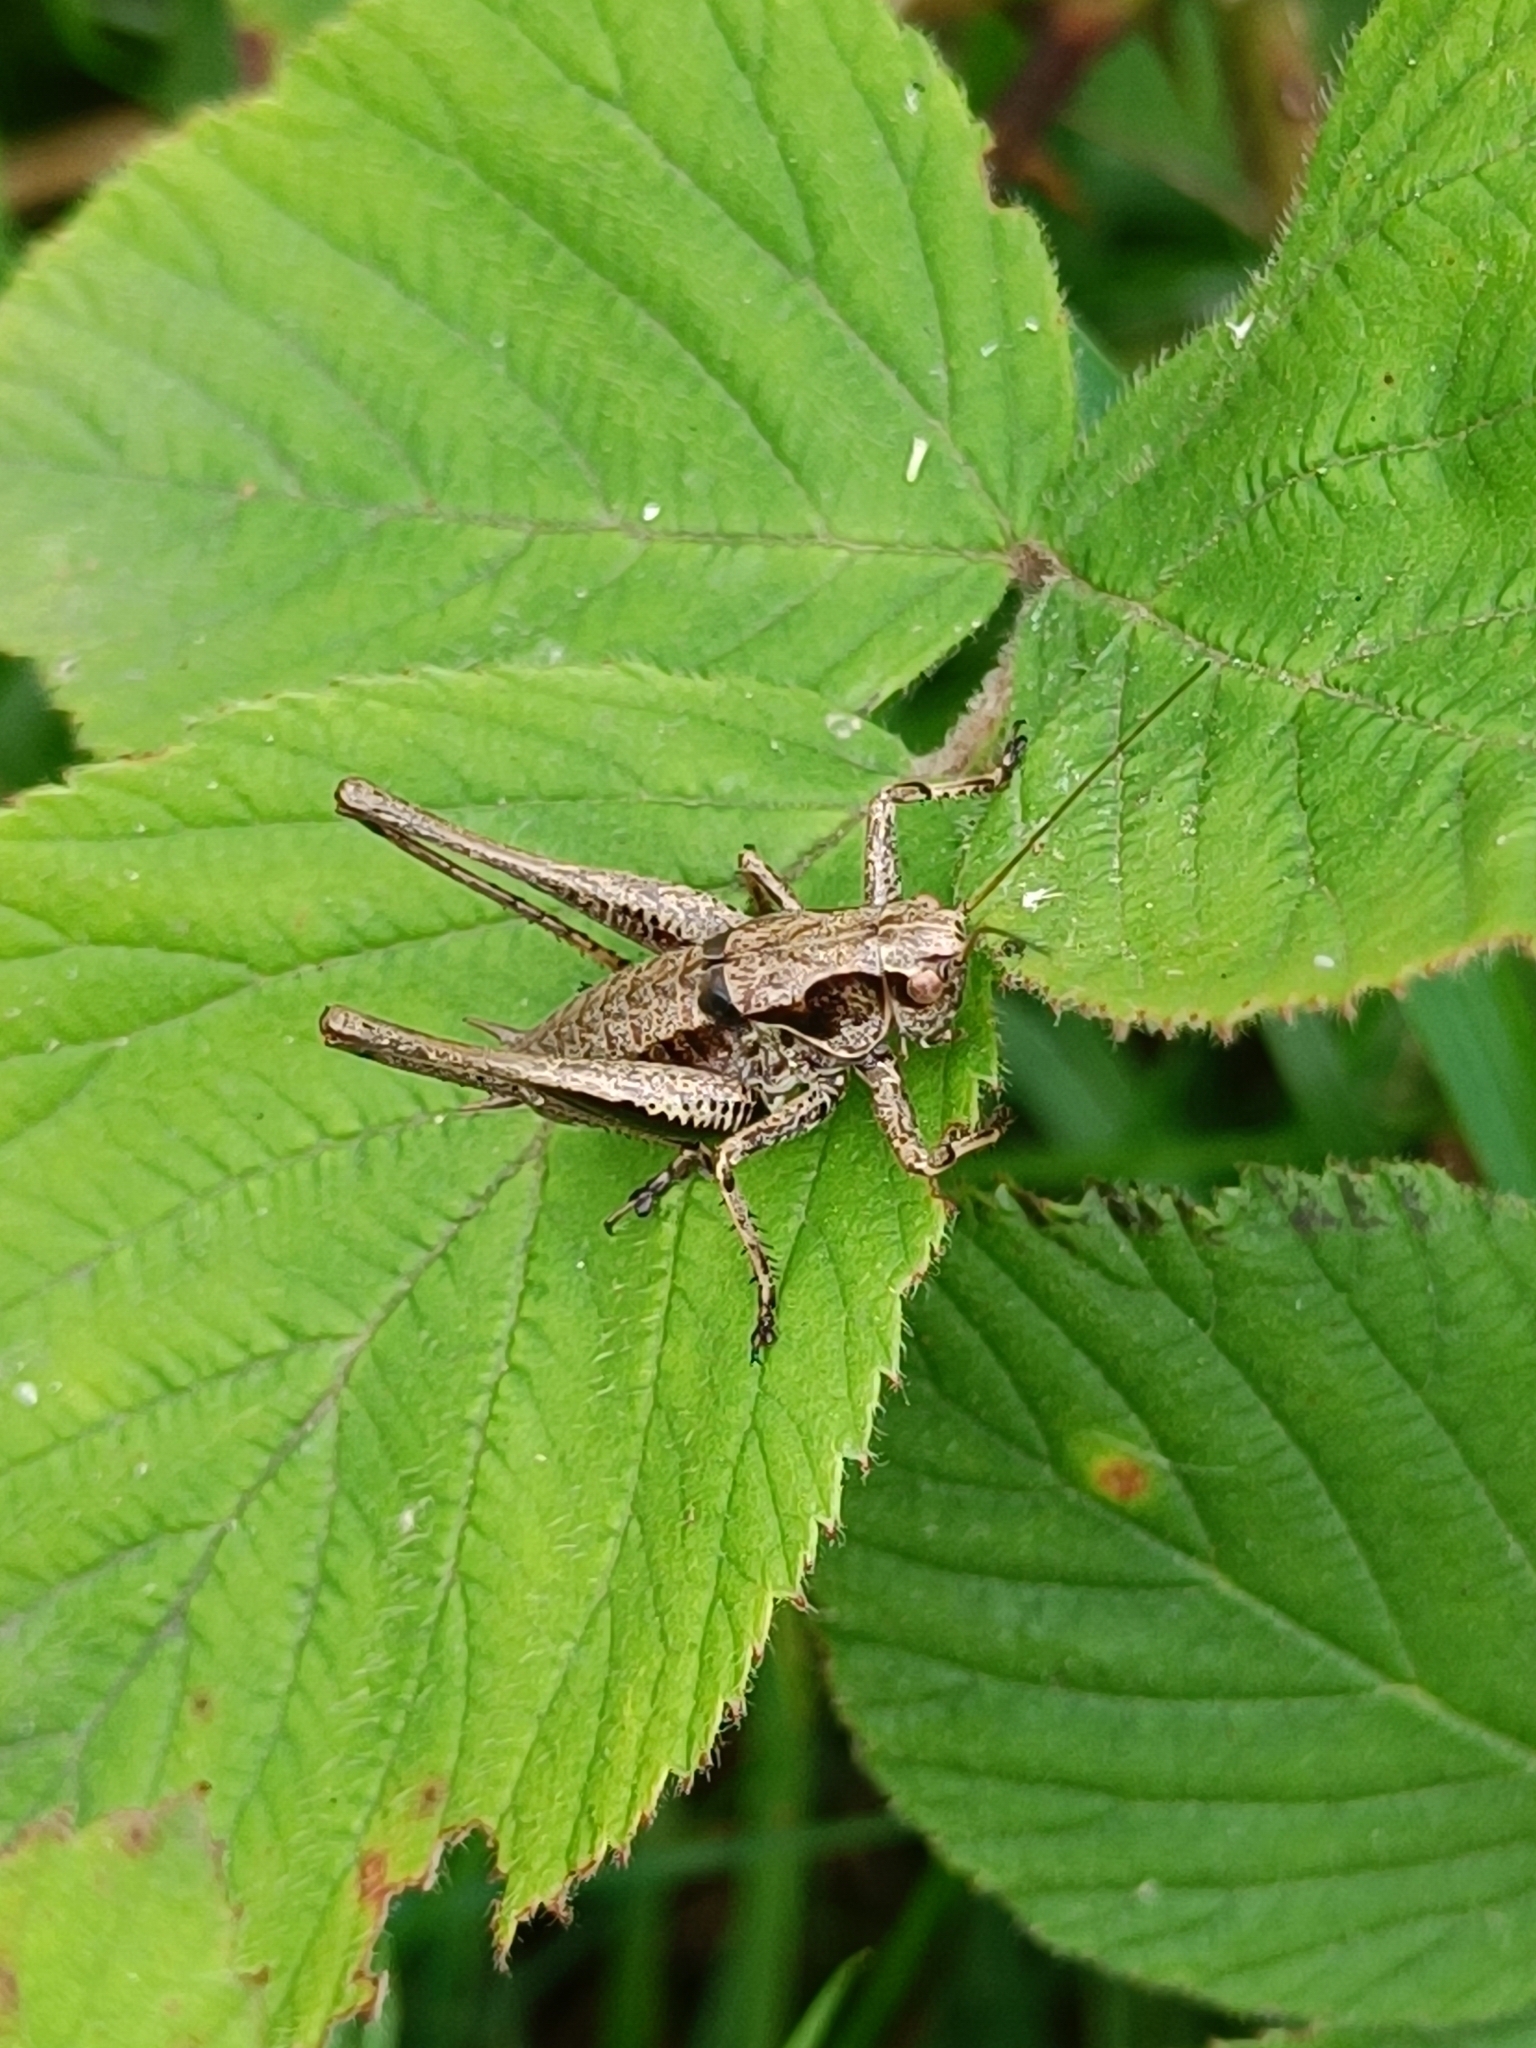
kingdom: Animalia
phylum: Arthropoda
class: Insecta
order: Orthoptera
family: Tettigoniidae
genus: Pholidoptera
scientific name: Pholidoptera griseoaptera
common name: Dark bush-cricket
